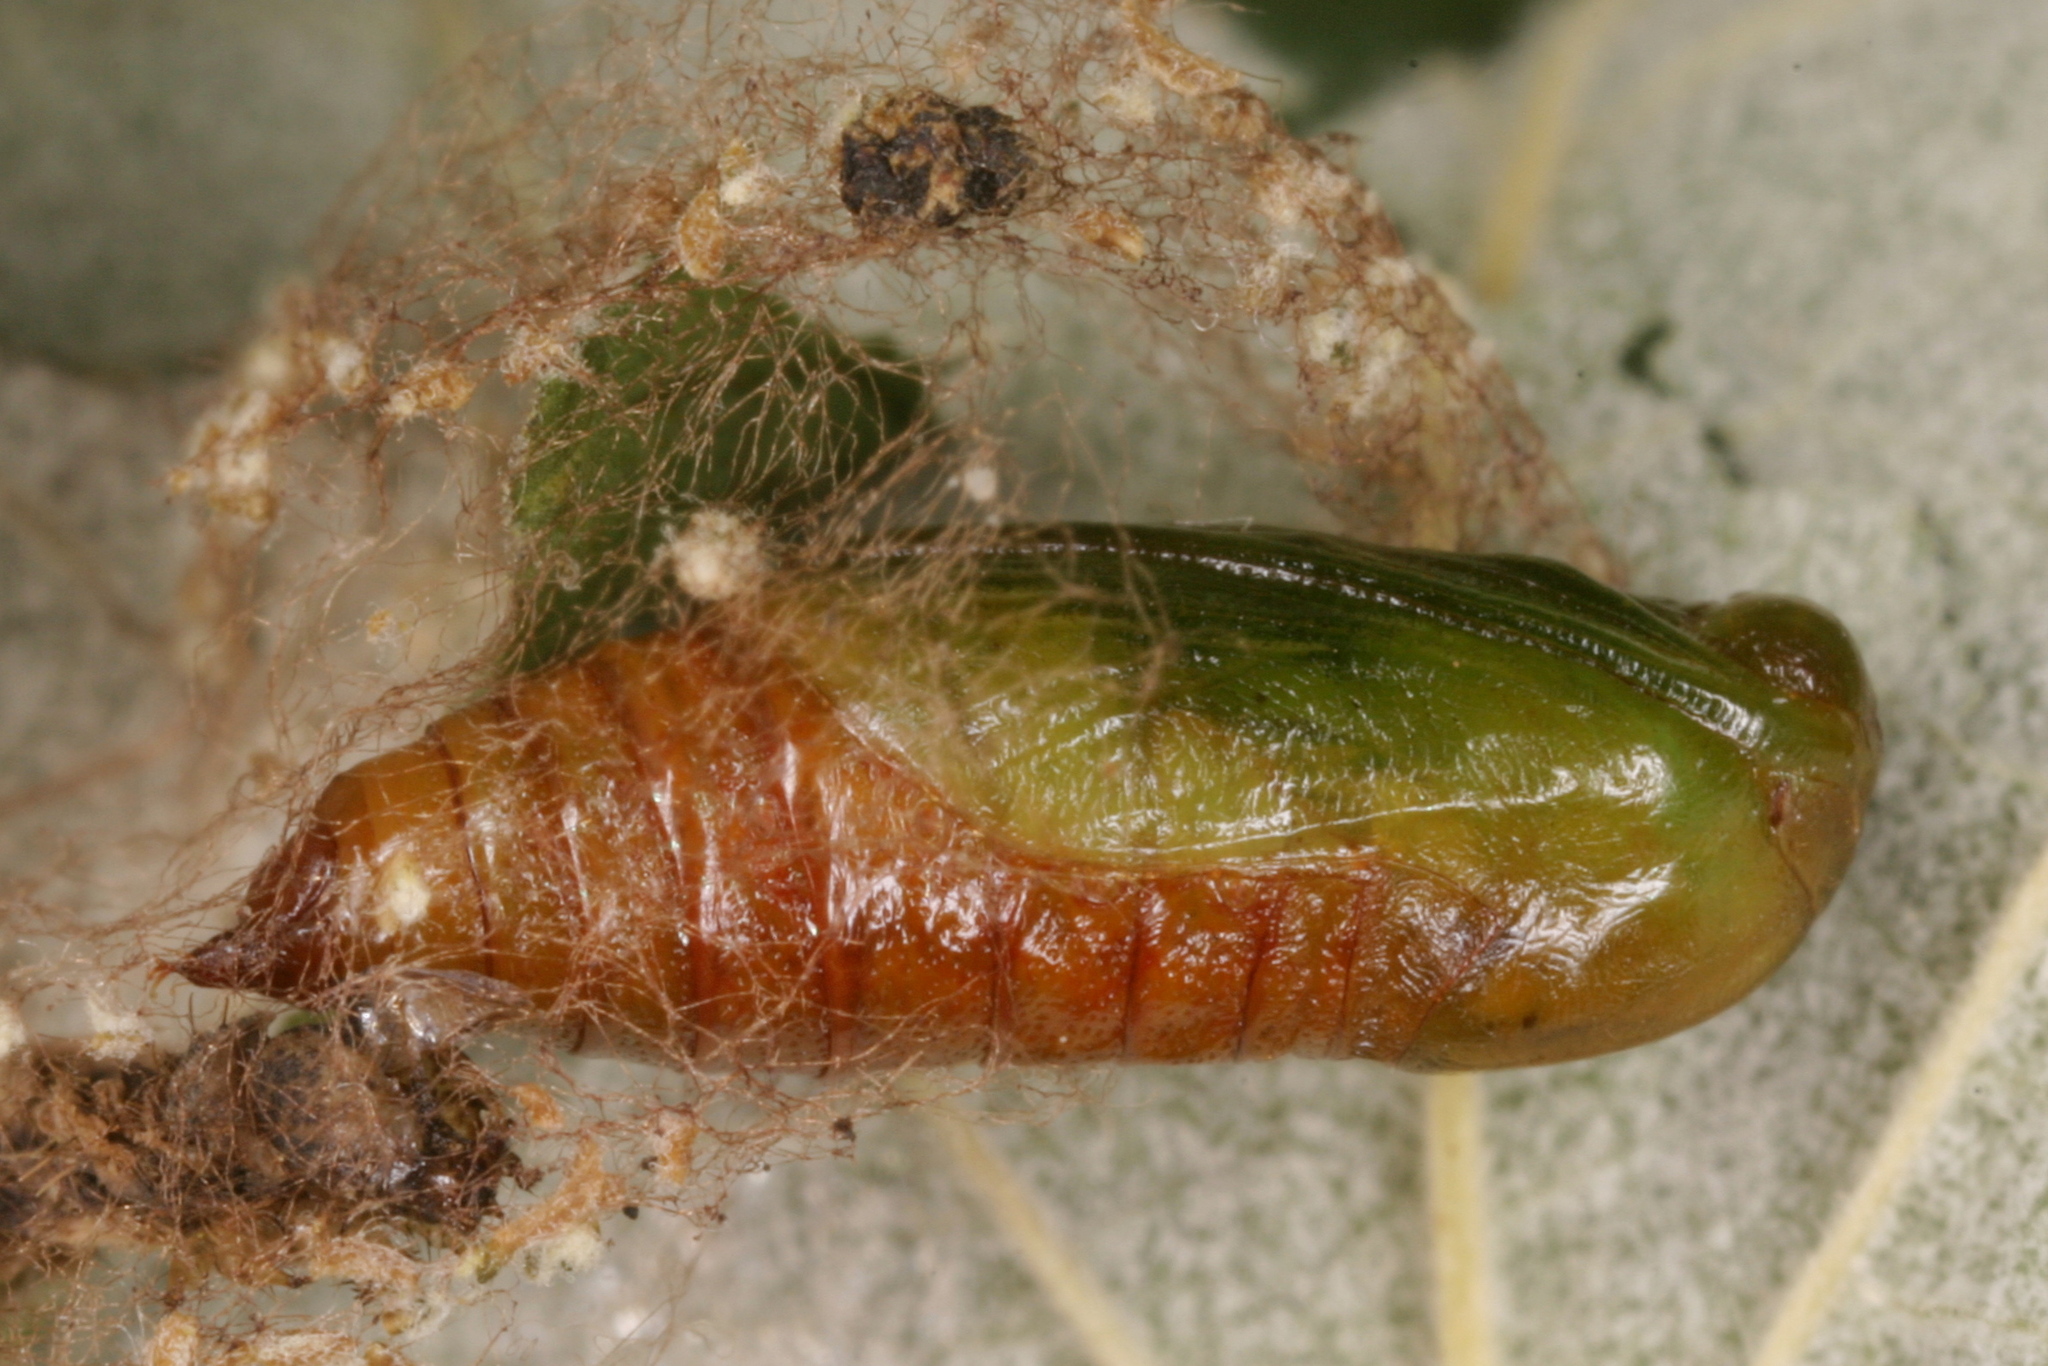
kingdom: Animalia
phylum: Arthropoda
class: Insecta
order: Lepidoptera
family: Geometridae
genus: Eupithecia
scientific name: Eupithecia subfuscata
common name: Grey pug
